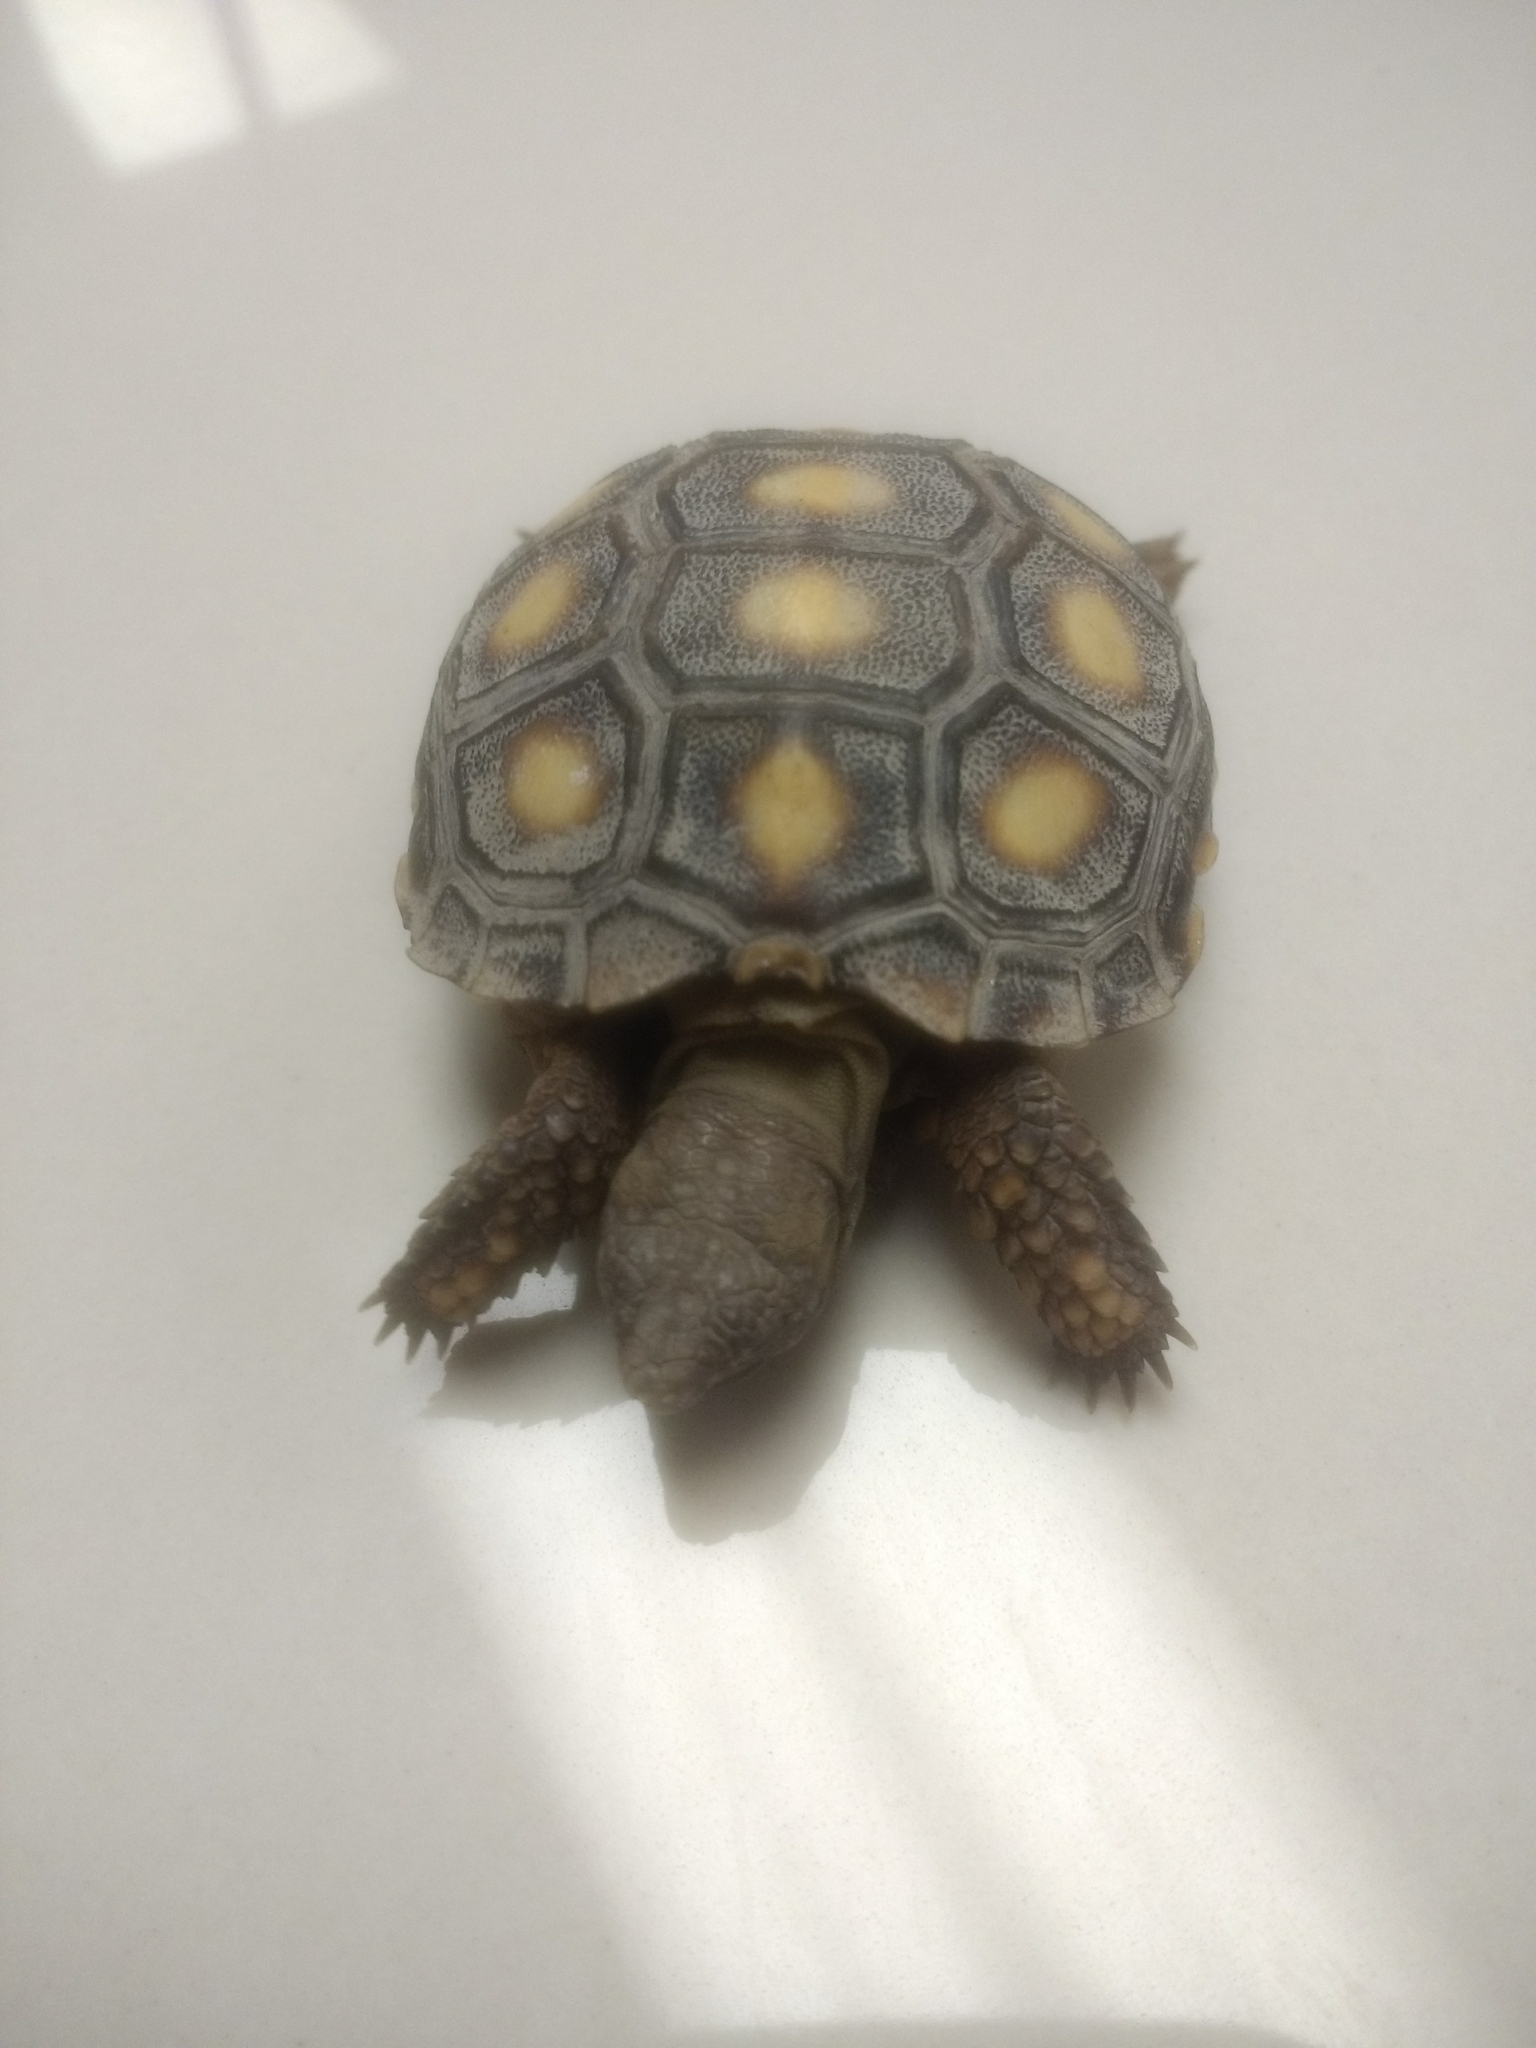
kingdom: Animalia
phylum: Chordata
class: Testudines
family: Testudinidae
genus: Gopherus
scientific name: Gopherus berlandieri
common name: Texas (gopher )tortoise
